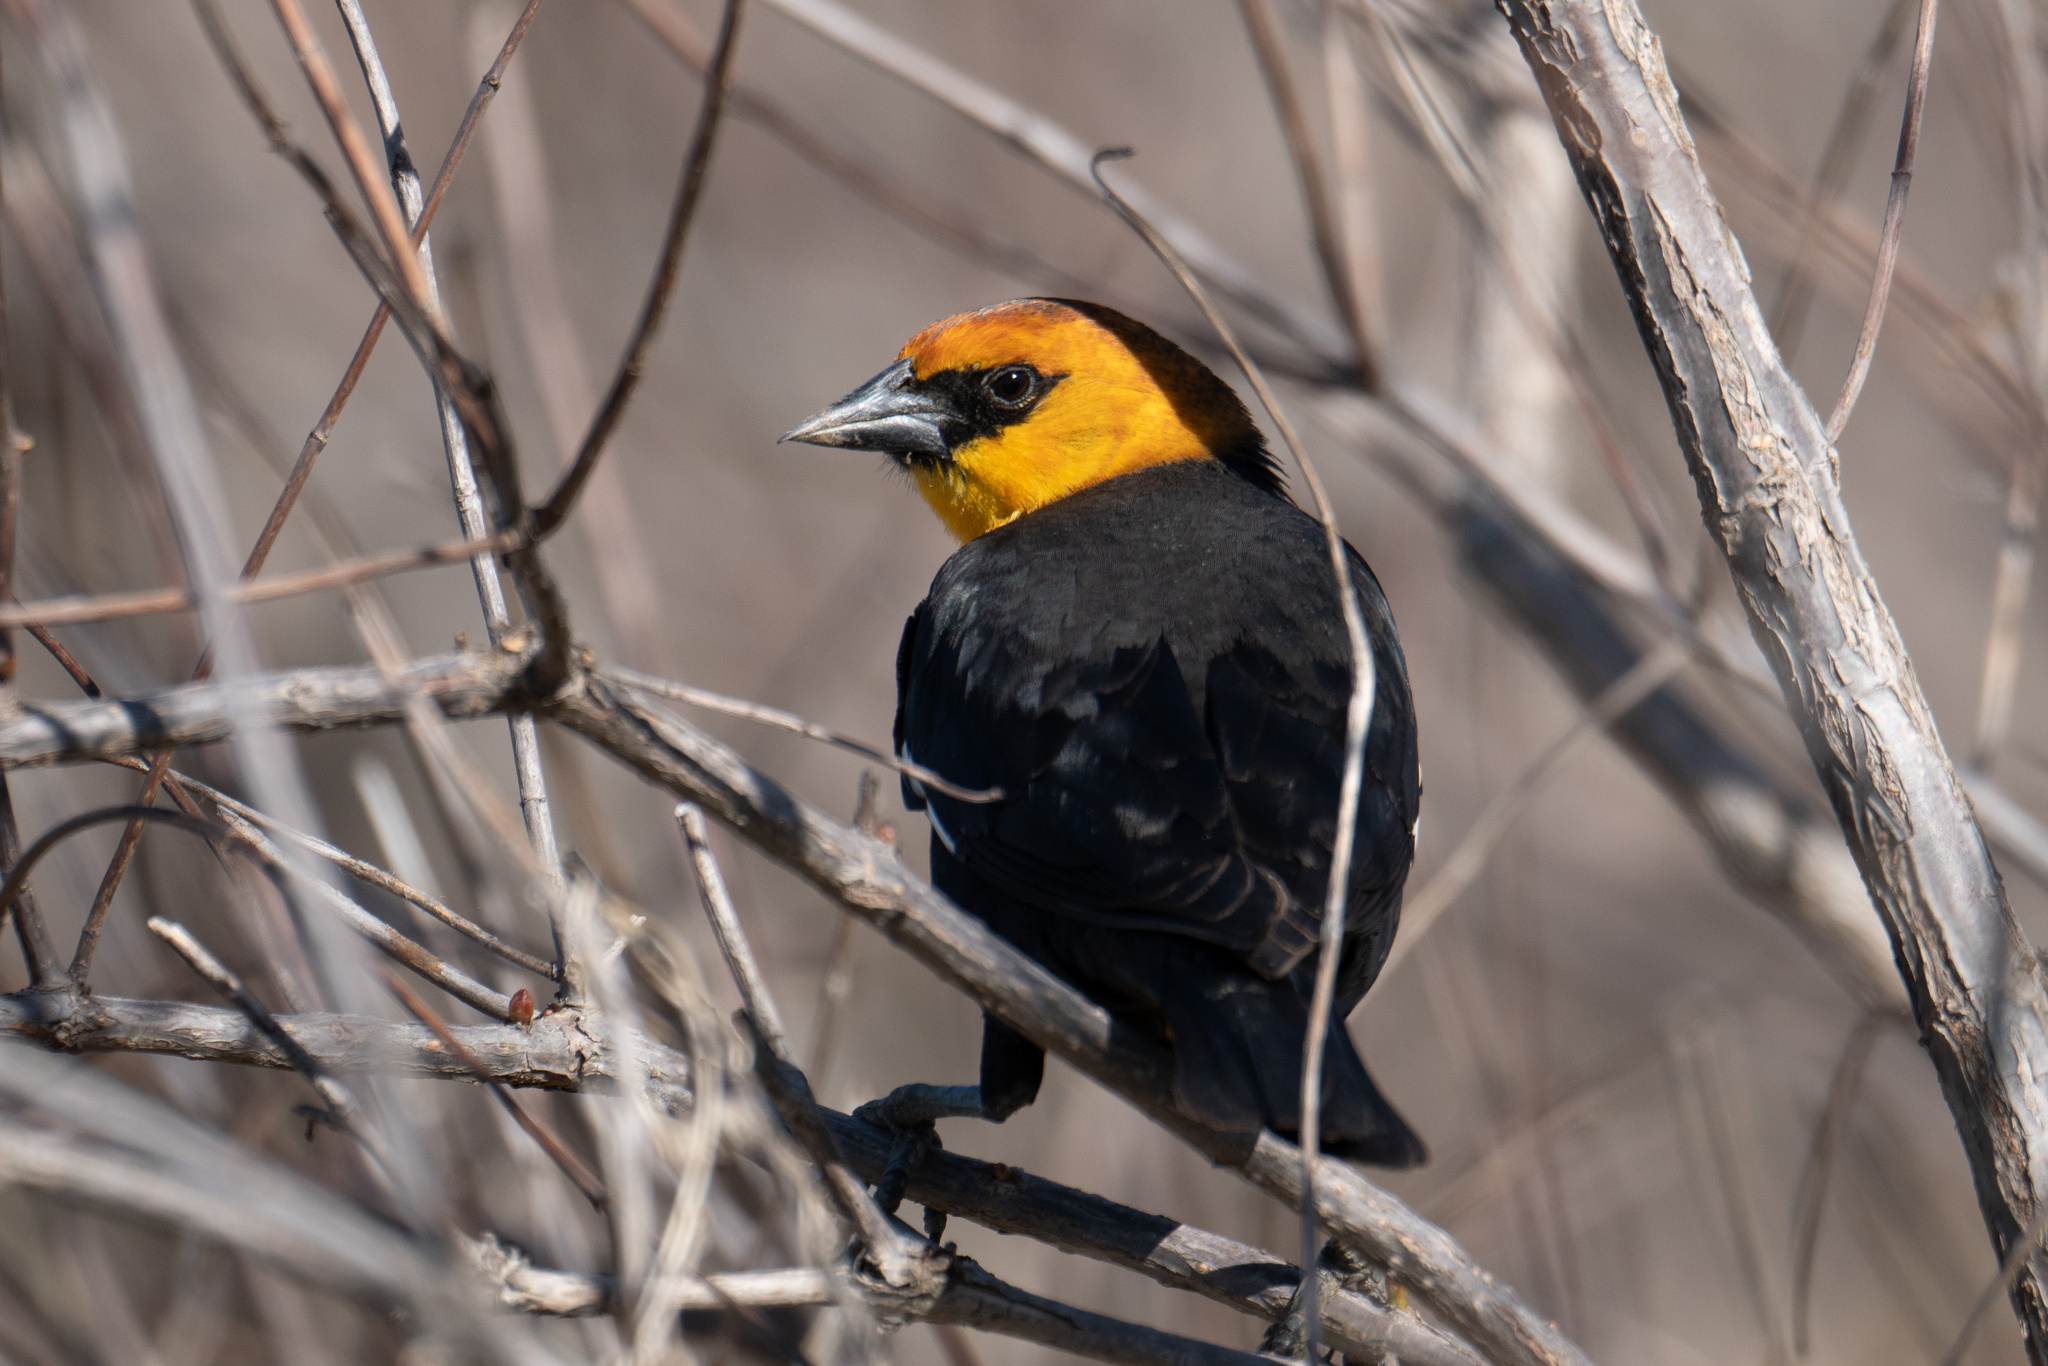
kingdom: Animalia
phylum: Chordata
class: Aves
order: Passeriformes
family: Icteridae
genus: Xanthocephalus
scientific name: Xanthocephalus xanthocephalus
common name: Yellow-headed blackbird
